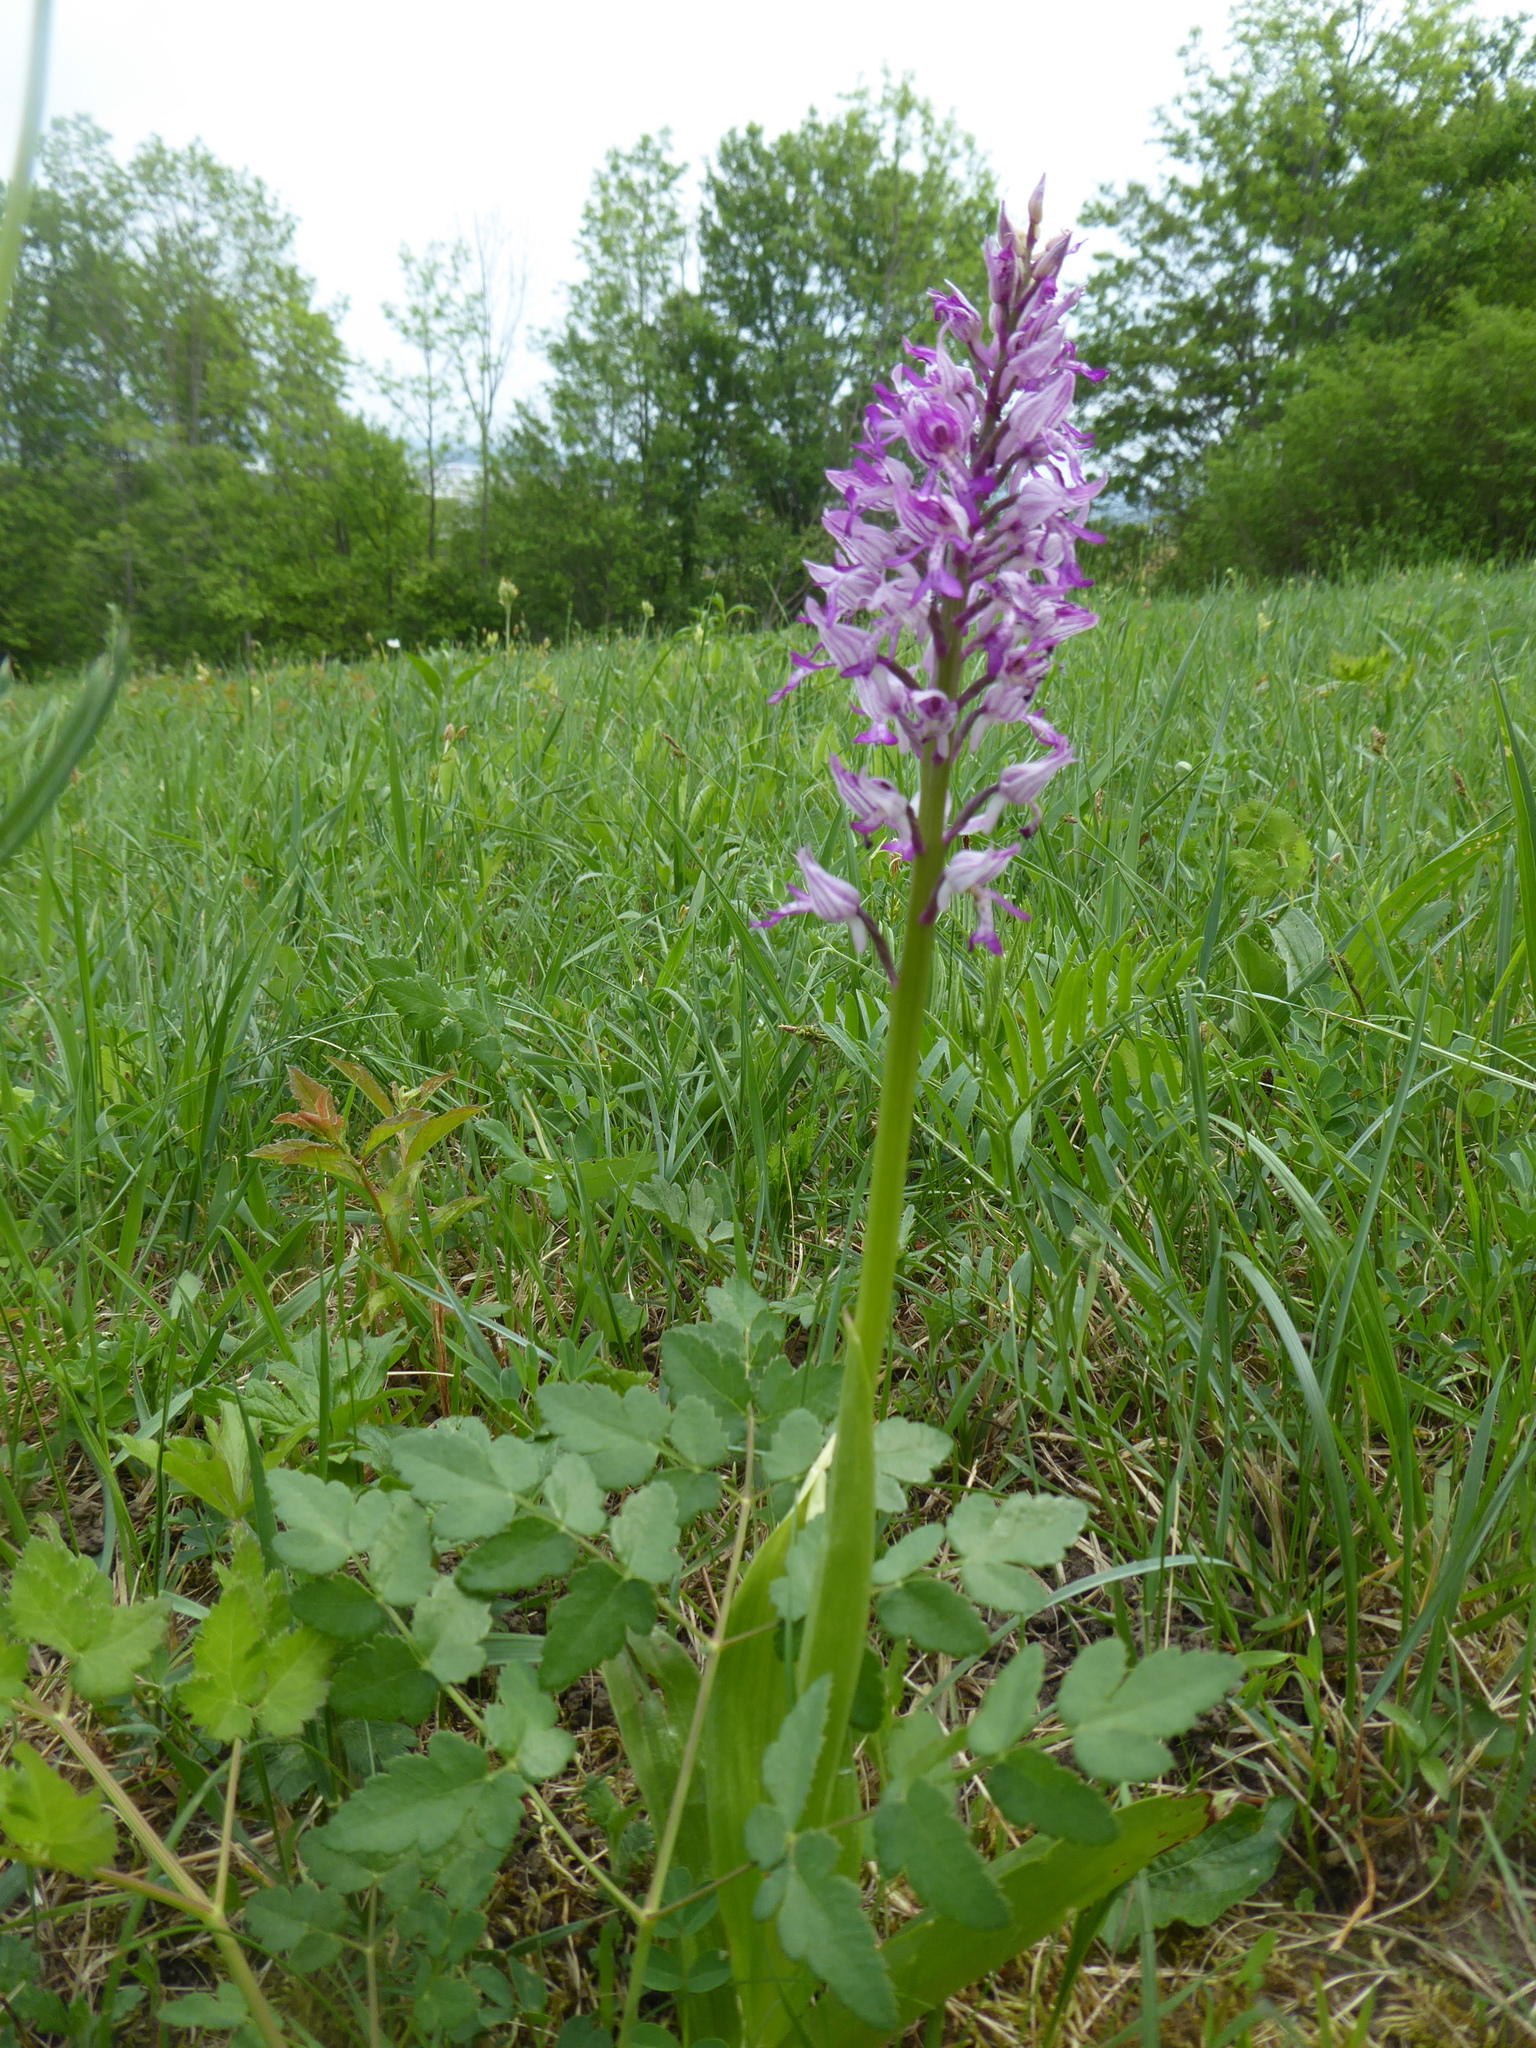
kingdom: Plantae
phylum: Tracheophyta
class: Liliopsida
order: Asparagales
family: Orchidaceae
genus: Orchis
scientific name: Orchis militaris
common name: Military orchid
